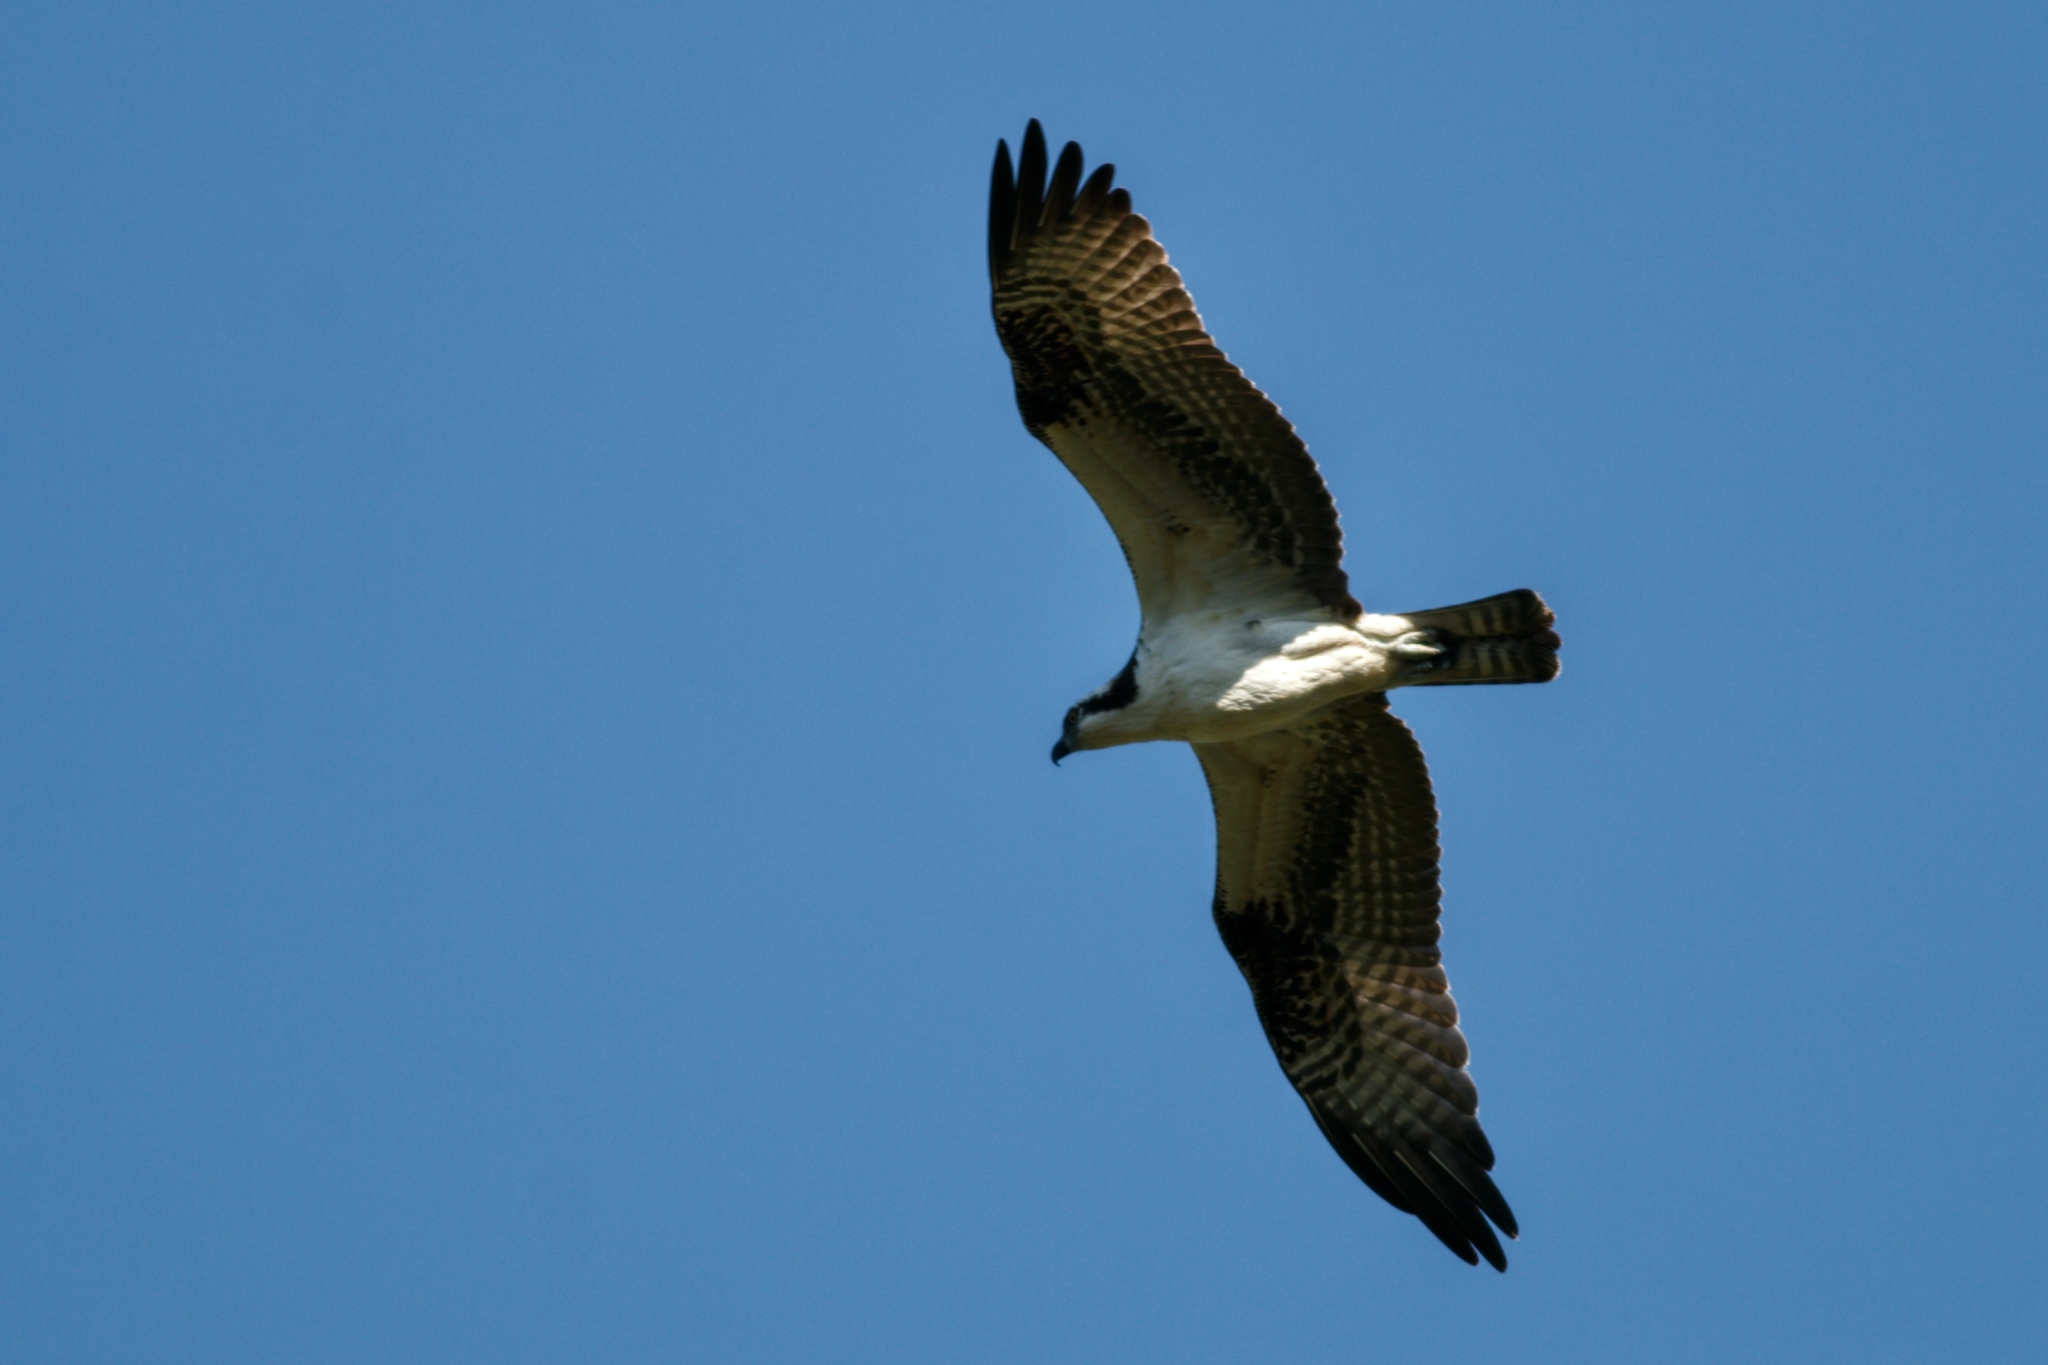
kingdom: Animalia
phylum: Chordata
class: Aves
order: Accipitriformes
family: Pandionidae
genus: Pandion
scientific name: Pandion haliaetus
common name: Osprey
